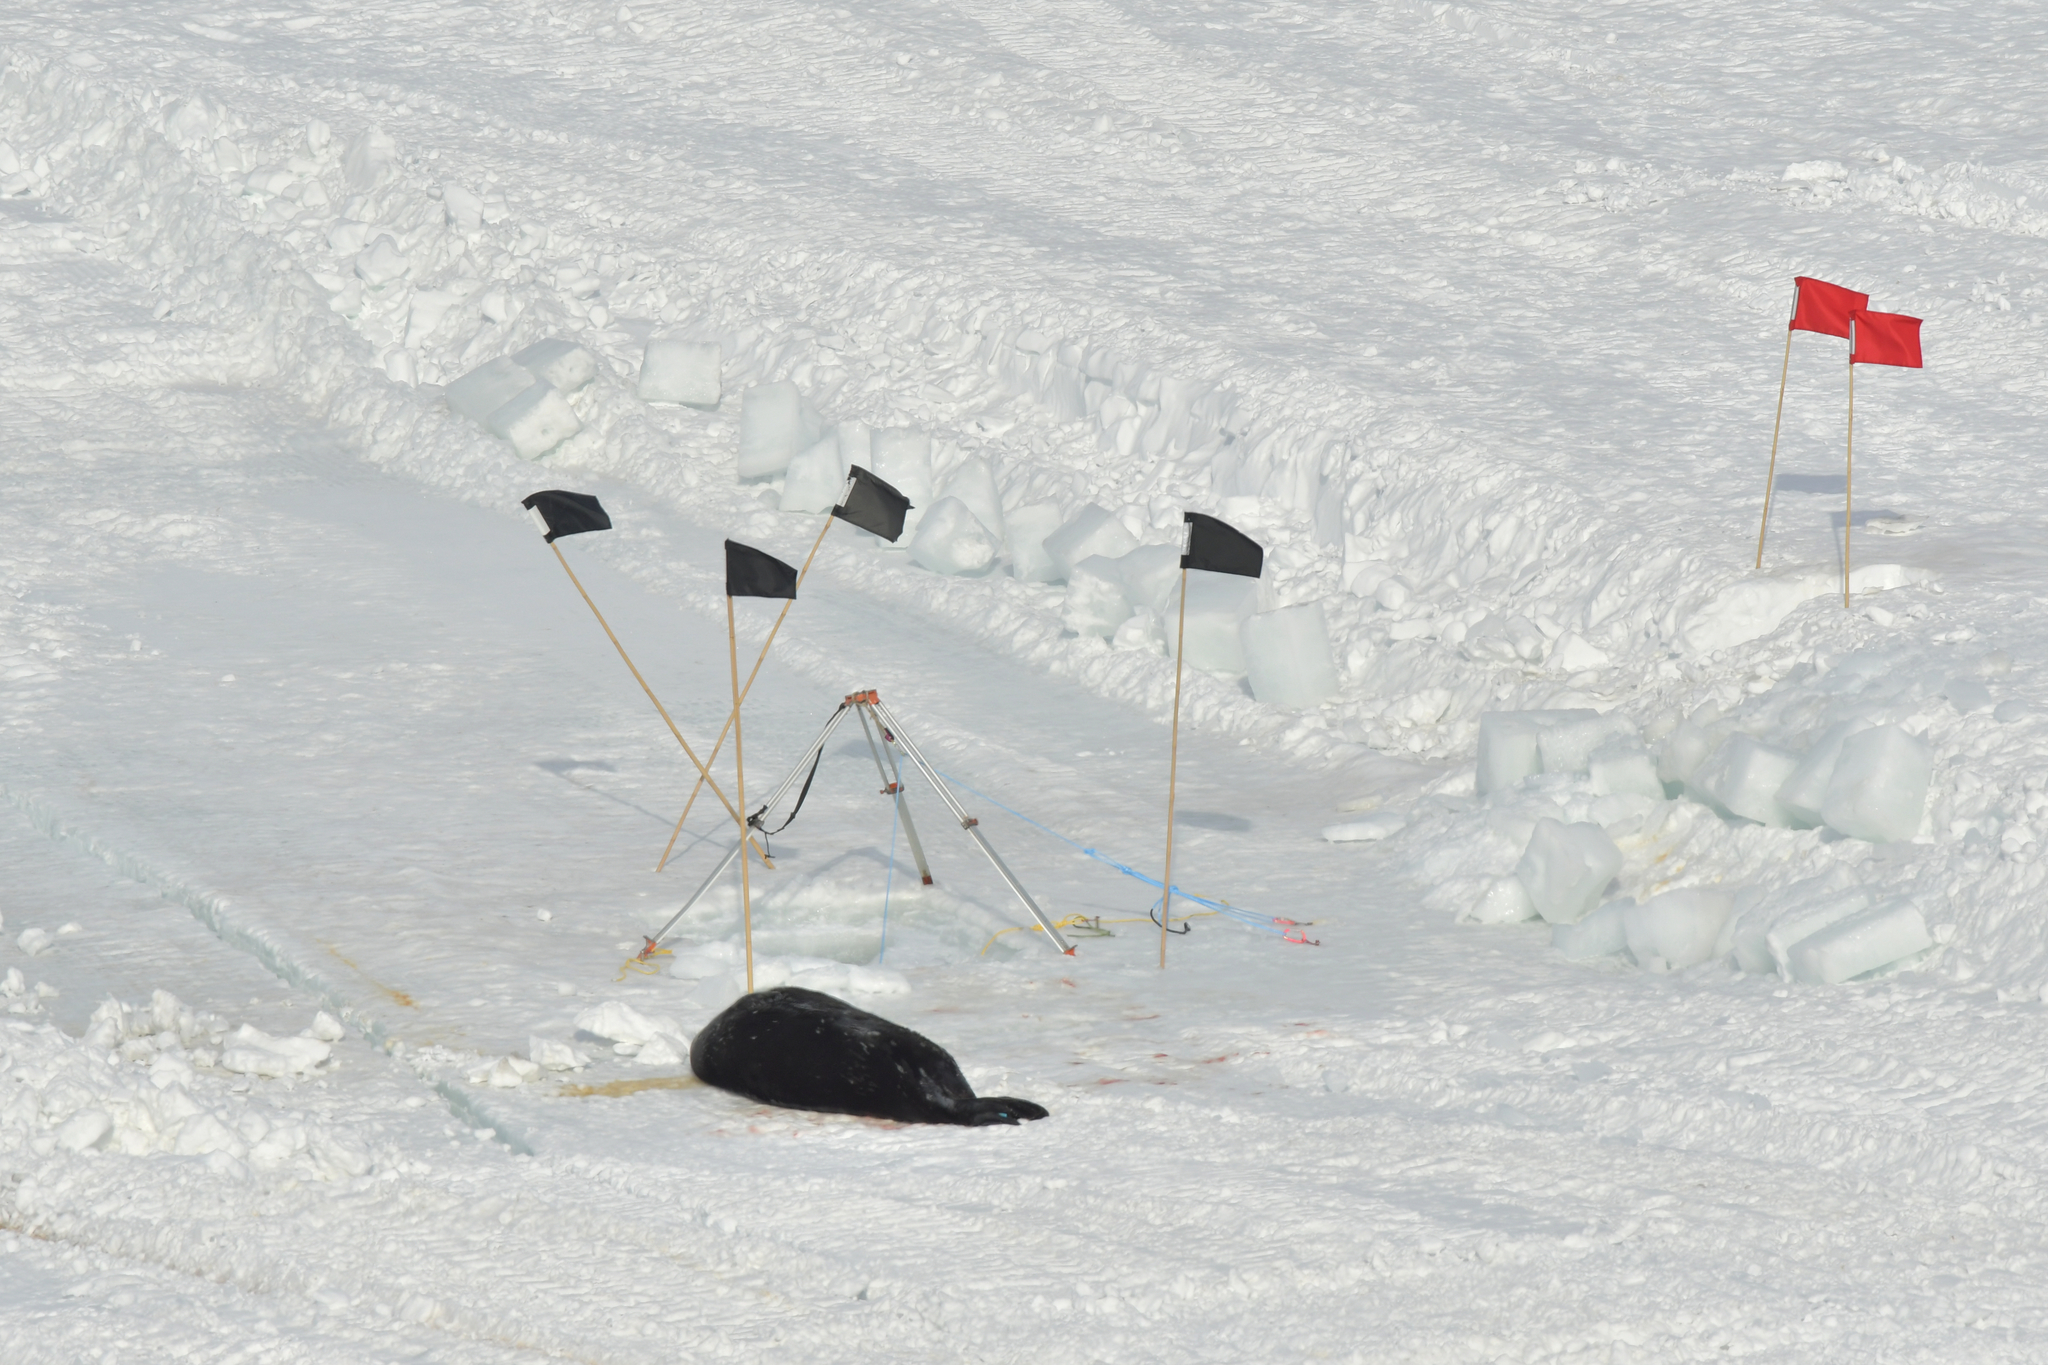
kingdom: Animalia
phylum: Chordata
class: Mammalia
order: Carnivora
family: Phocidae
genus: Leptonychotes
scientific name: Leptonychotes weddellii
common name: Weddell seal
